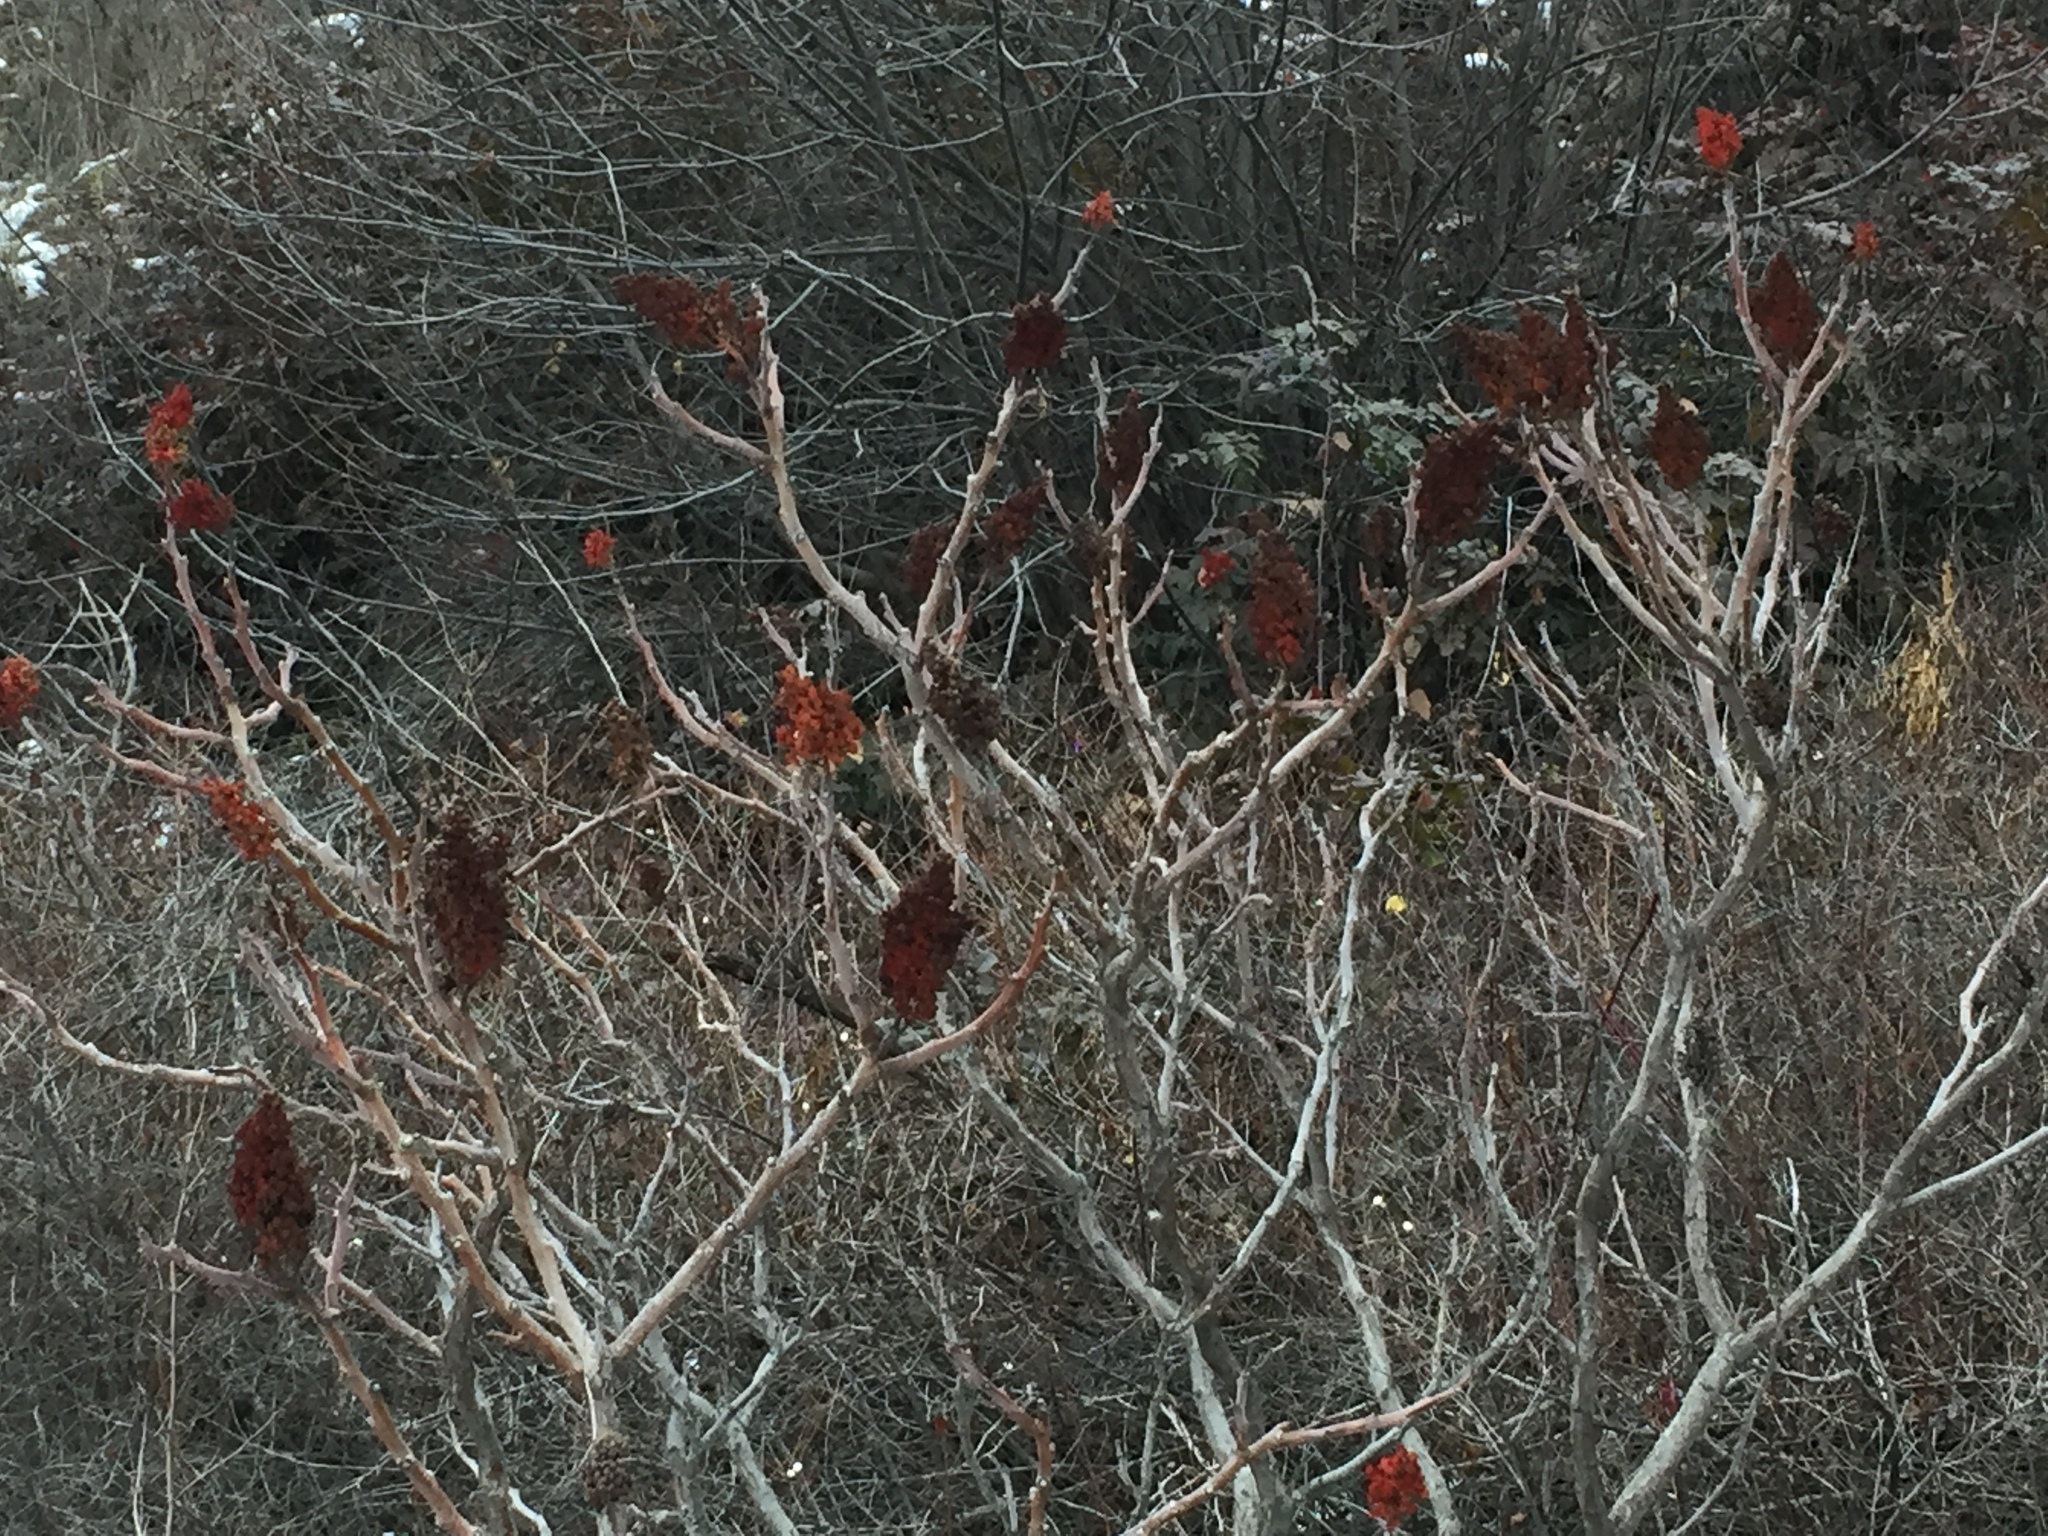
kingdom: Plantae
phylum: Tracheophyta
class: Magnoliopsida
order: Sapindales
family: Anacardiaceae
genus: Rhus
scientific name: Rhus glabra
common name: Scarlet sumac
